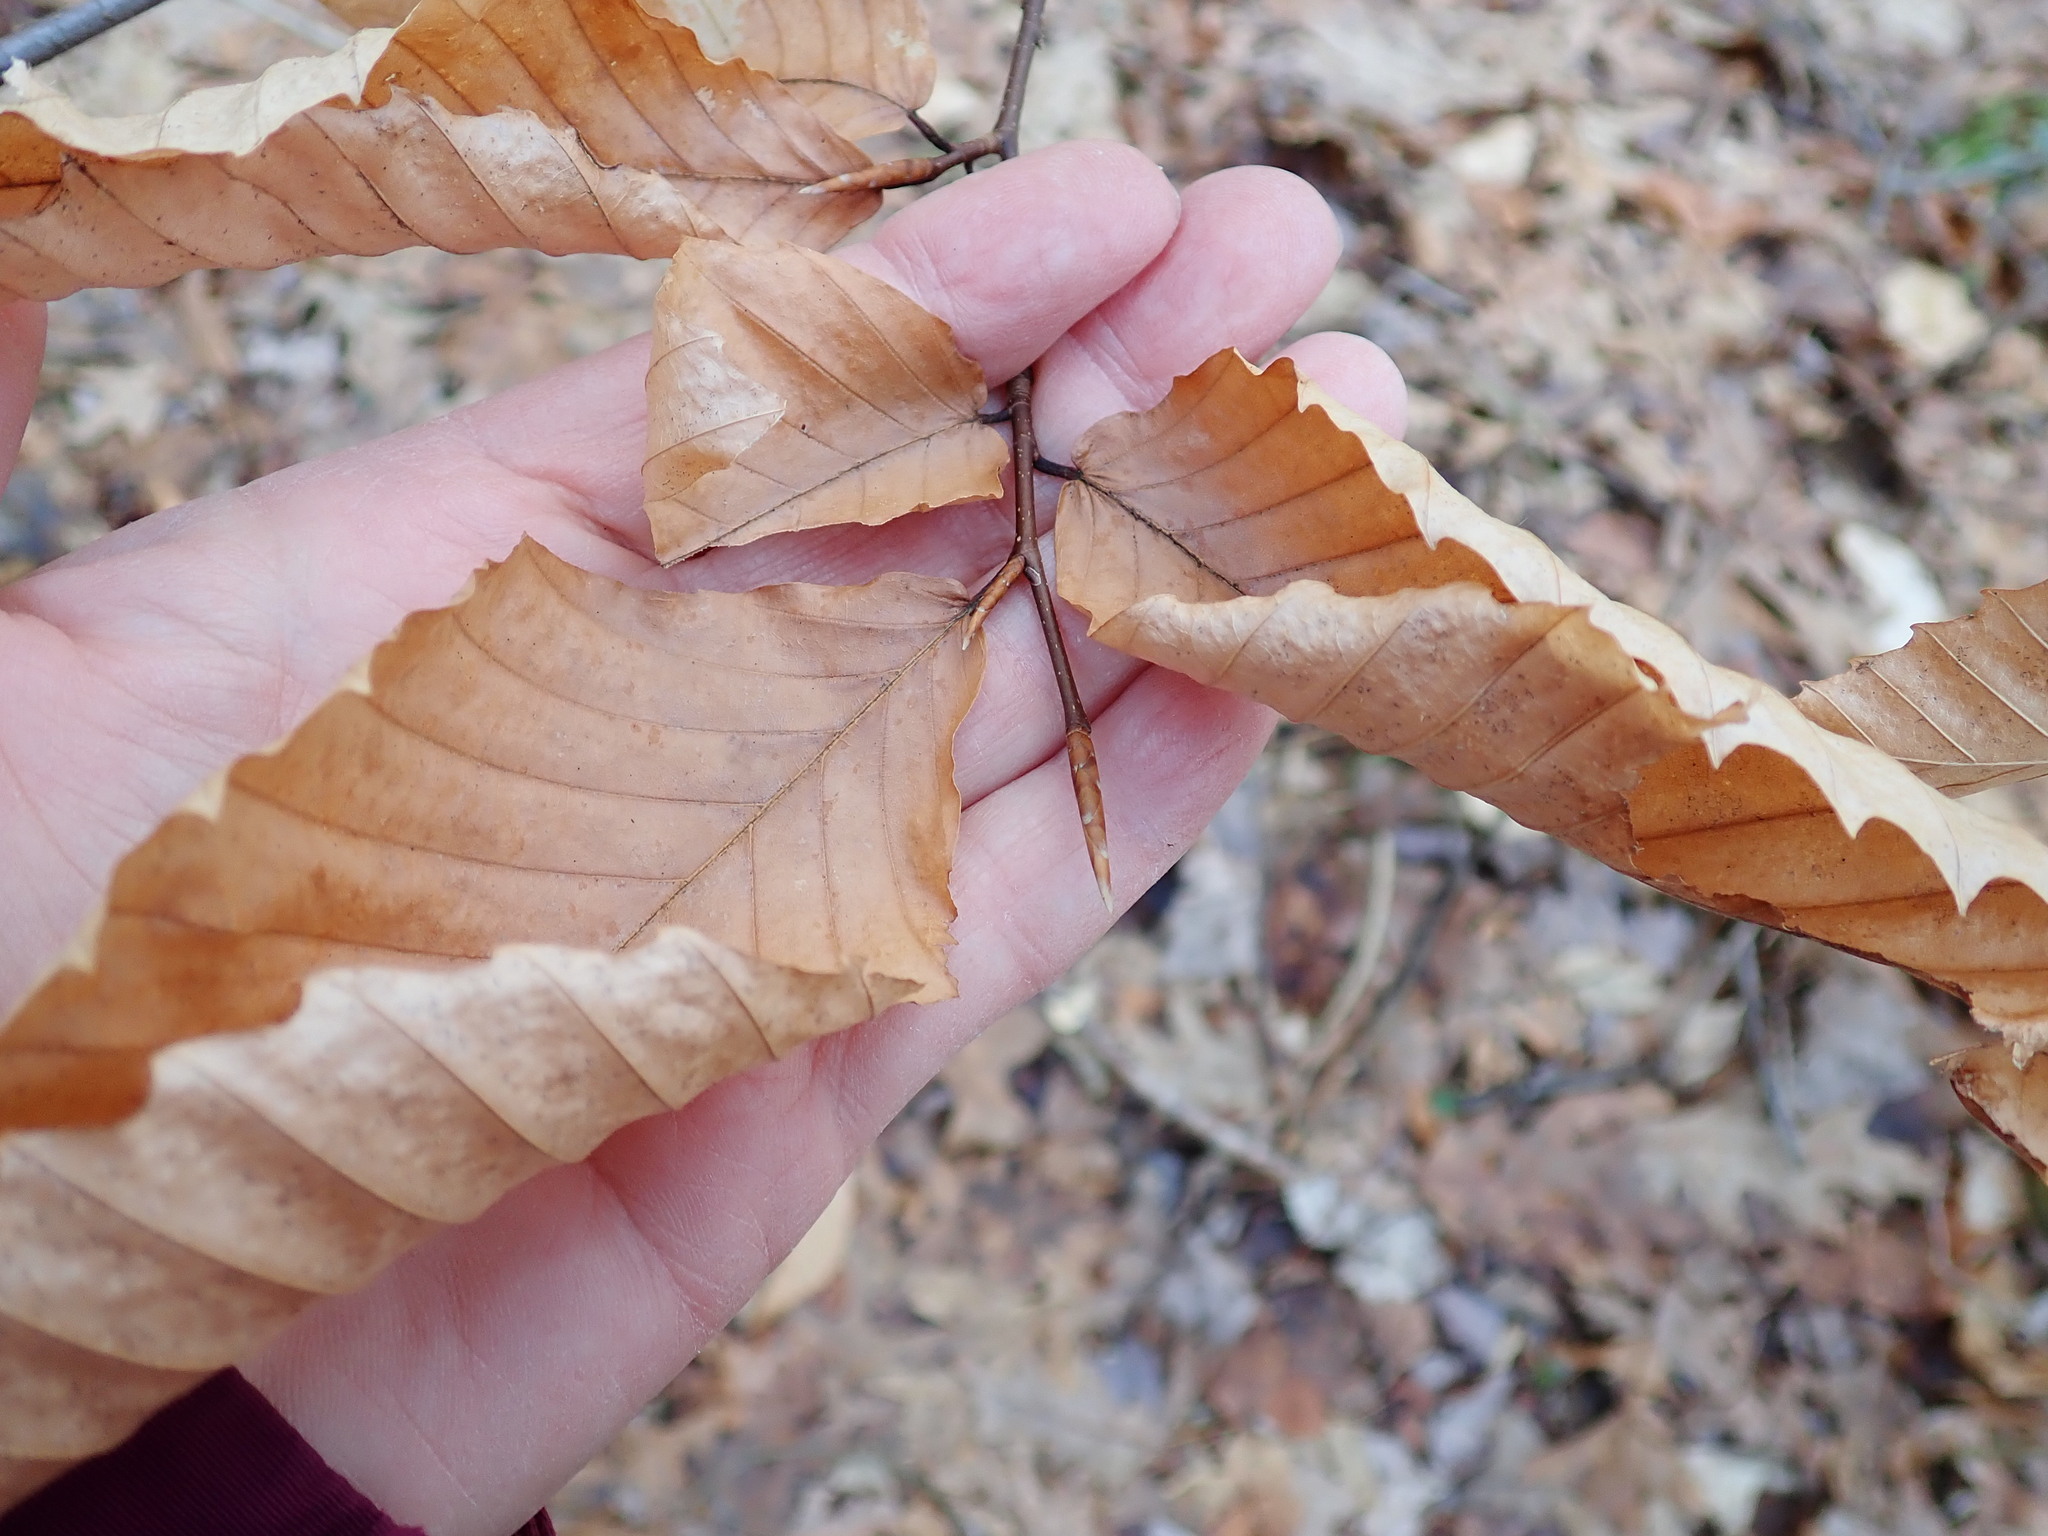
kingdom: Plantae
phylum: Tracheophyta
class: Magnoliopsida
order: Fagales
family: Fagaceae
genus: Fagus
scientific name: Fagus grandifolia
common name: American beech
